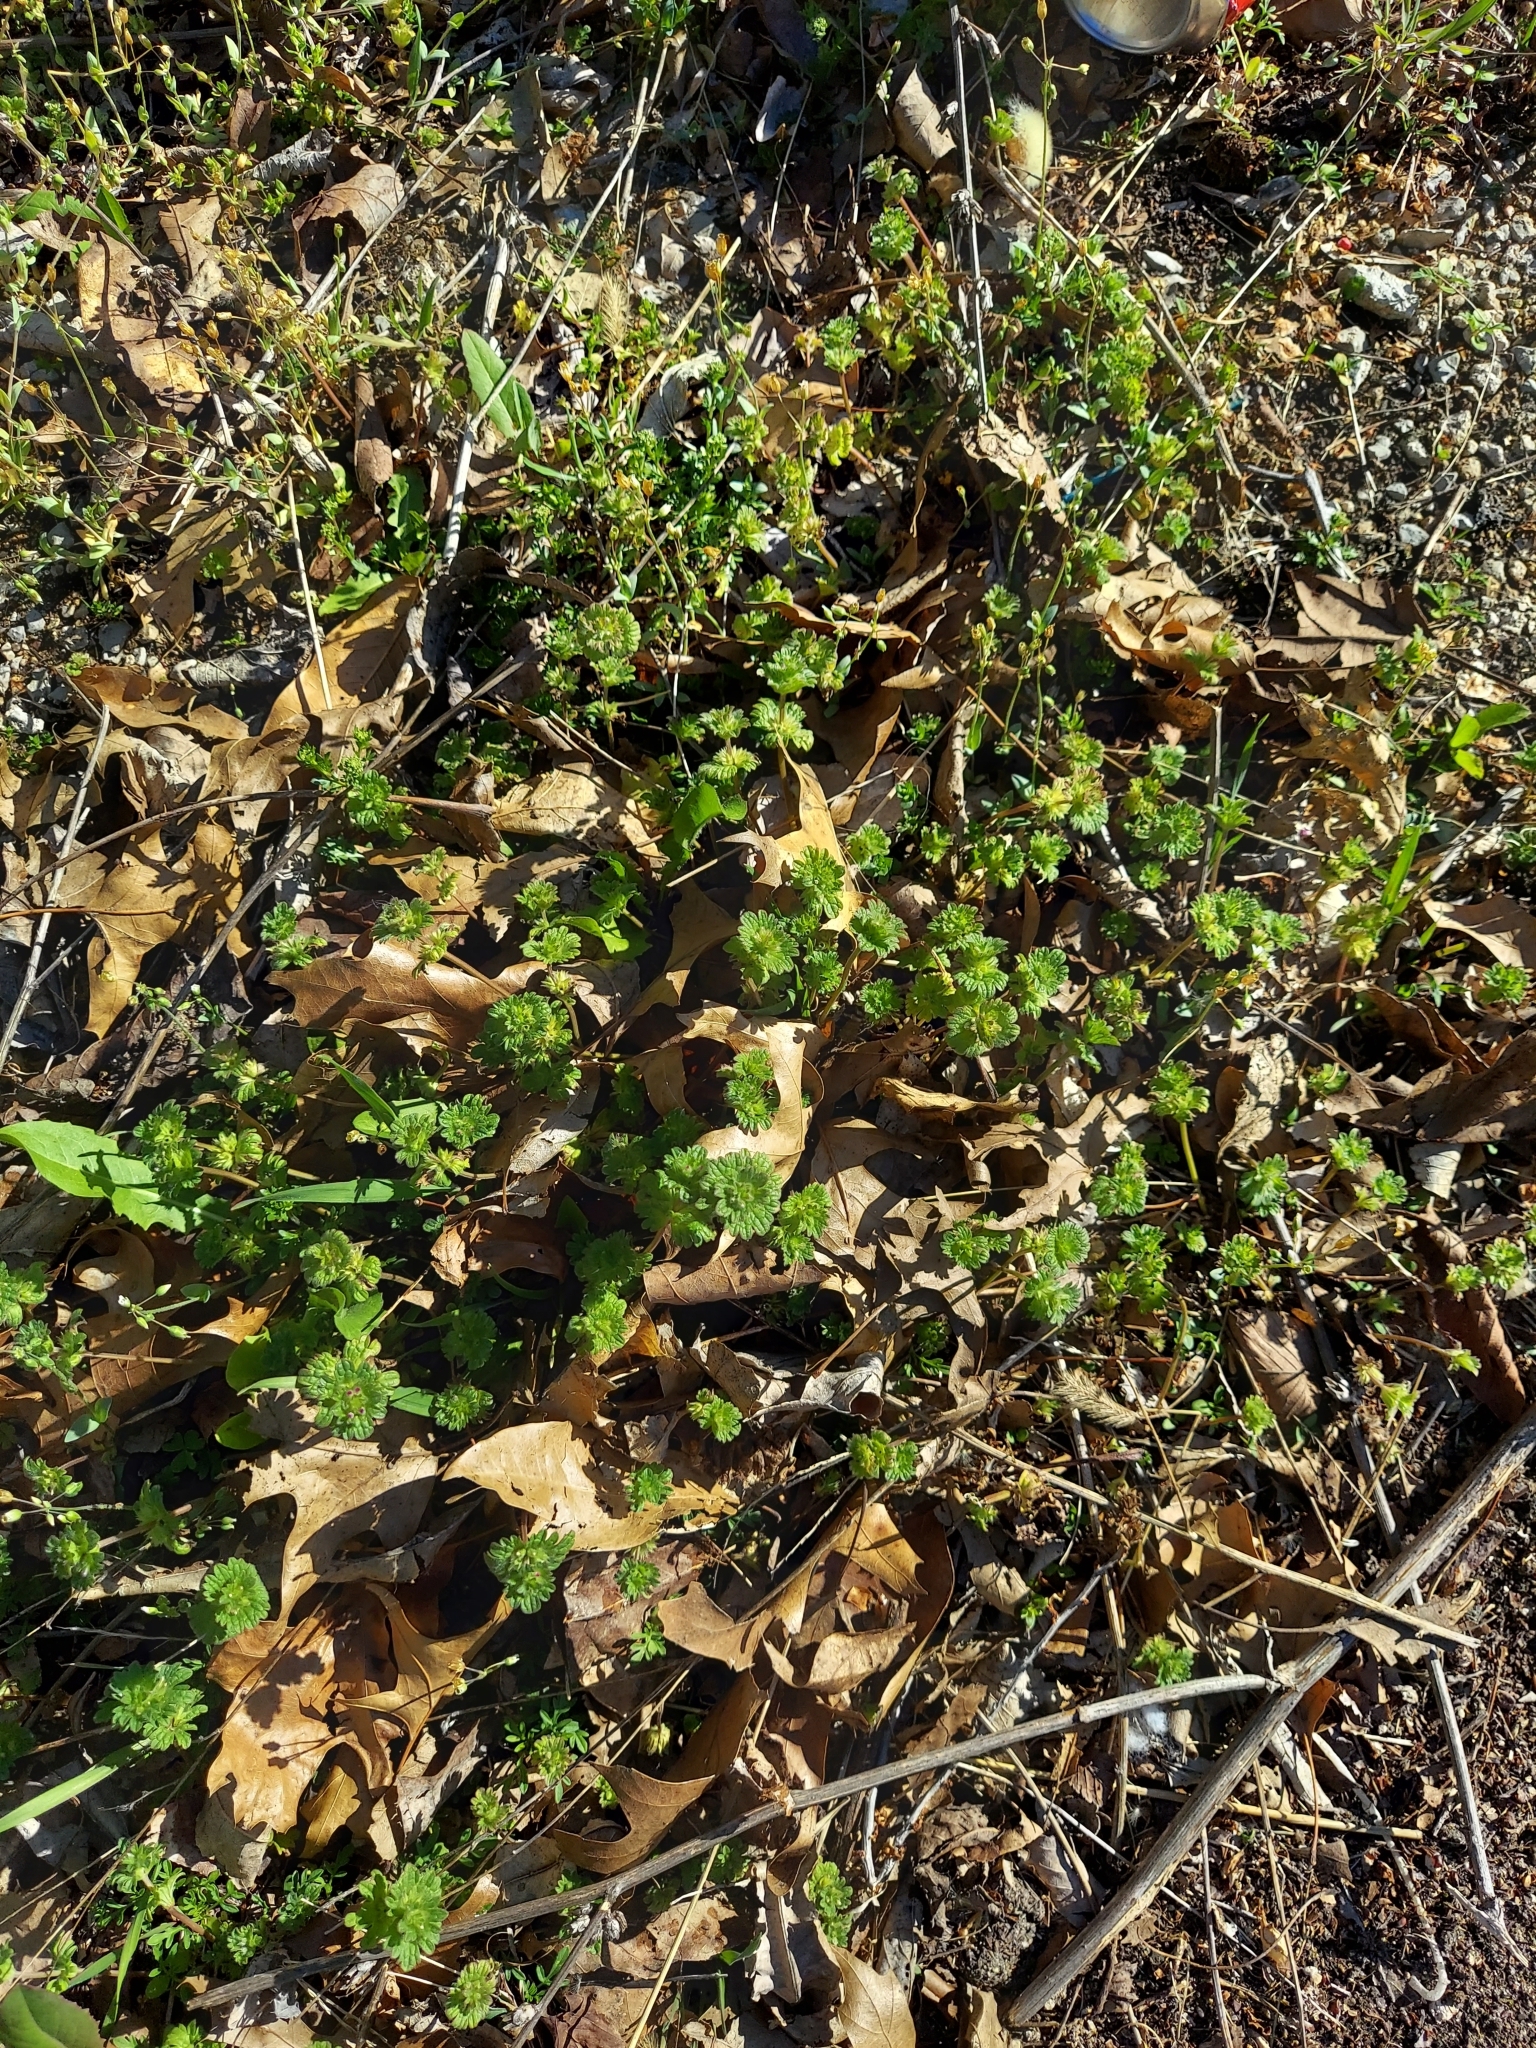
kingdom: Plantae
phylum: Tracheophyta
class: Magnoliopsida
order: Lamiales
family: Lamiaceae
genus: Lamium
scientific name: Lamium amplexicaule
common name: Henbit dead-nettle
